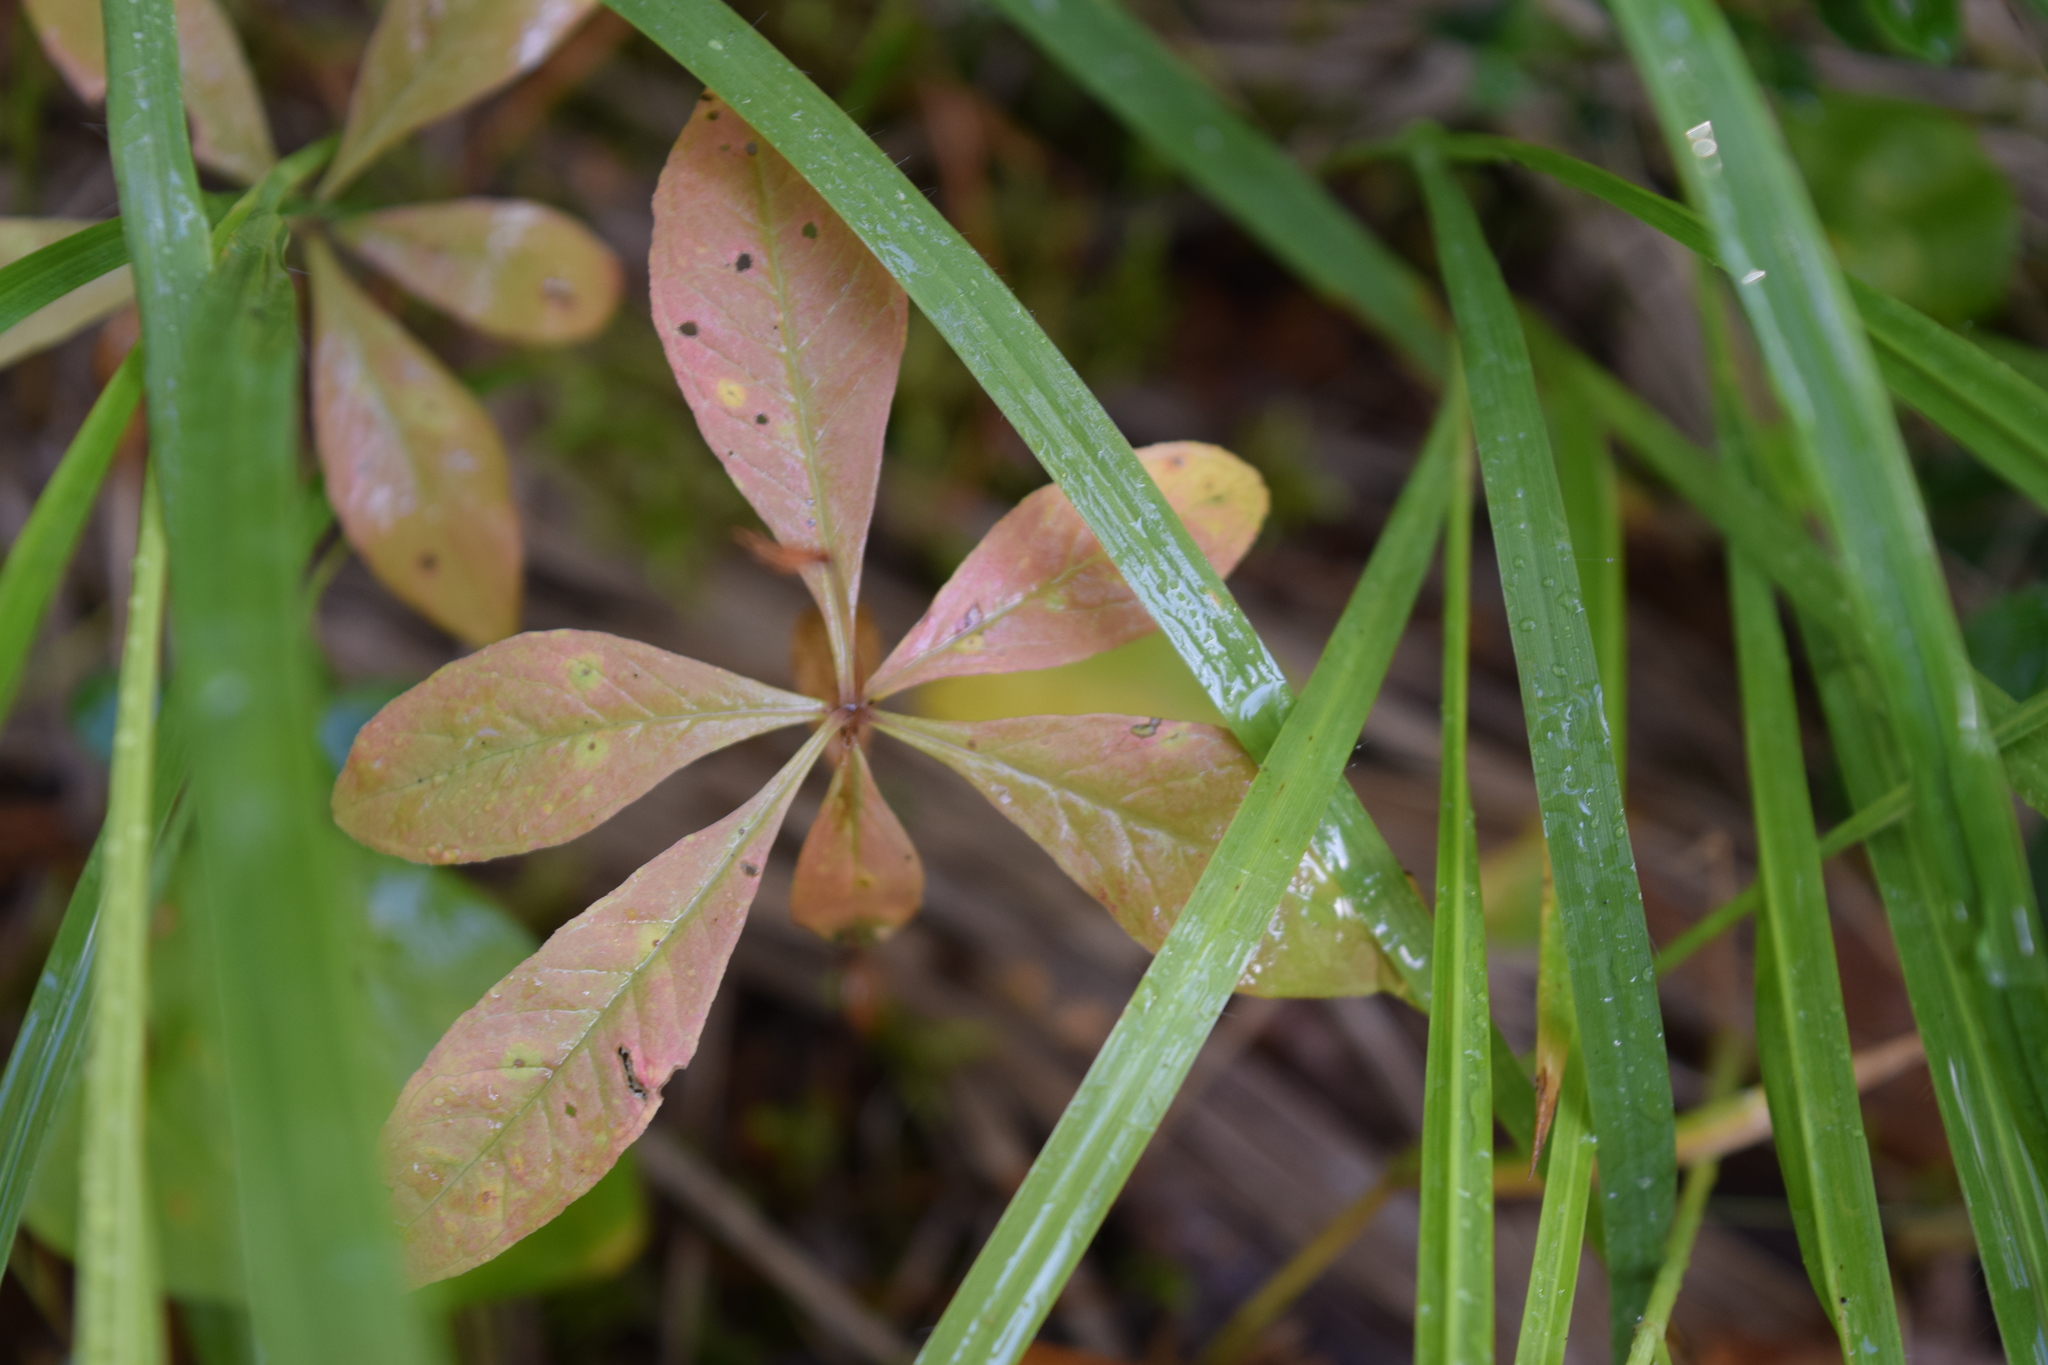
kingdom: Plantae
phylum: Tracheophyta
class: Magnoliopsida
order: Ericales
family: Primulaceae
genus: Lysimachia
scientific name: Lysimachia europaea
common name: Arctic starflower
